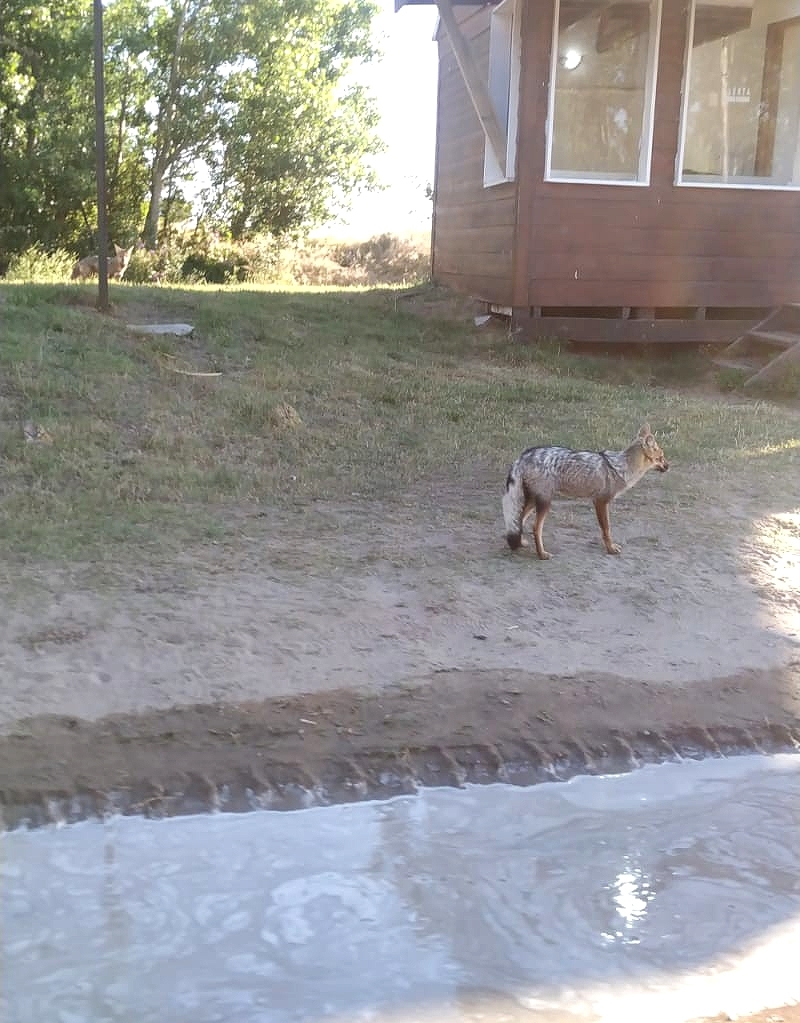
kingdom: Animalia
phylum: Chordata
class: Mammalia
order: Carnivora
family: Canidae
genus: Lycalopex
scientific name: Lycalopex gymnocercus
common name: Pampas fox
